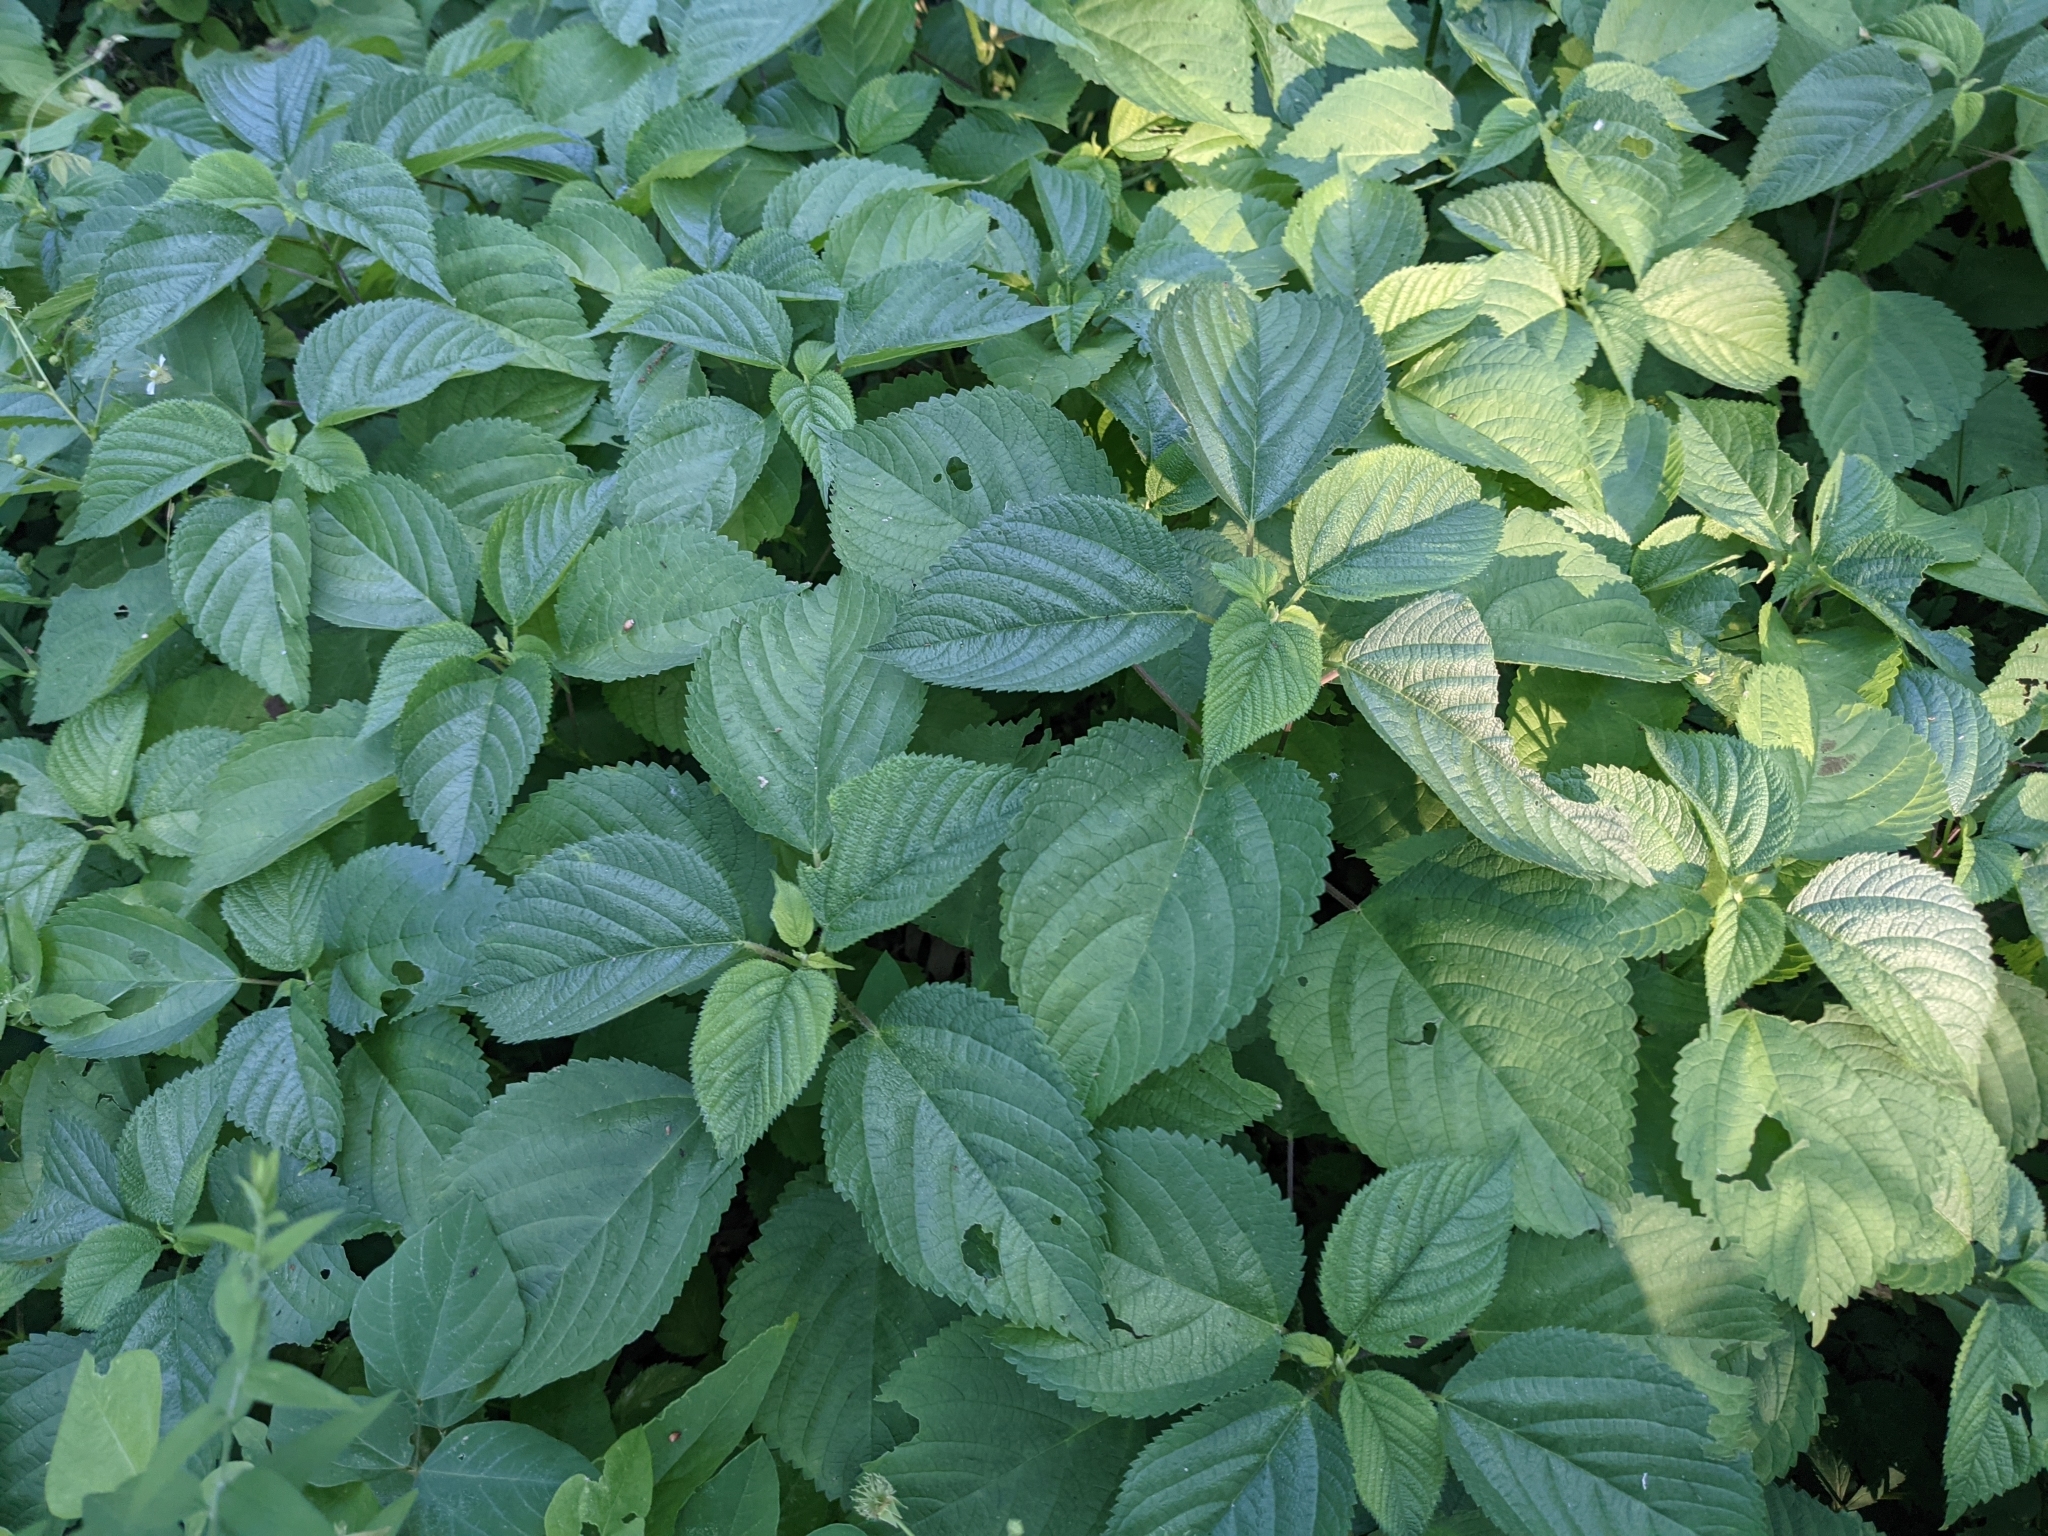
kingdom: Plantae
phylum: Tracheophyta
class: Magnoliopsida
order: Rosales
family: Urticaceae
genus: Laportea
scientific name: Laportea canadensis
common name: Canada nettle
